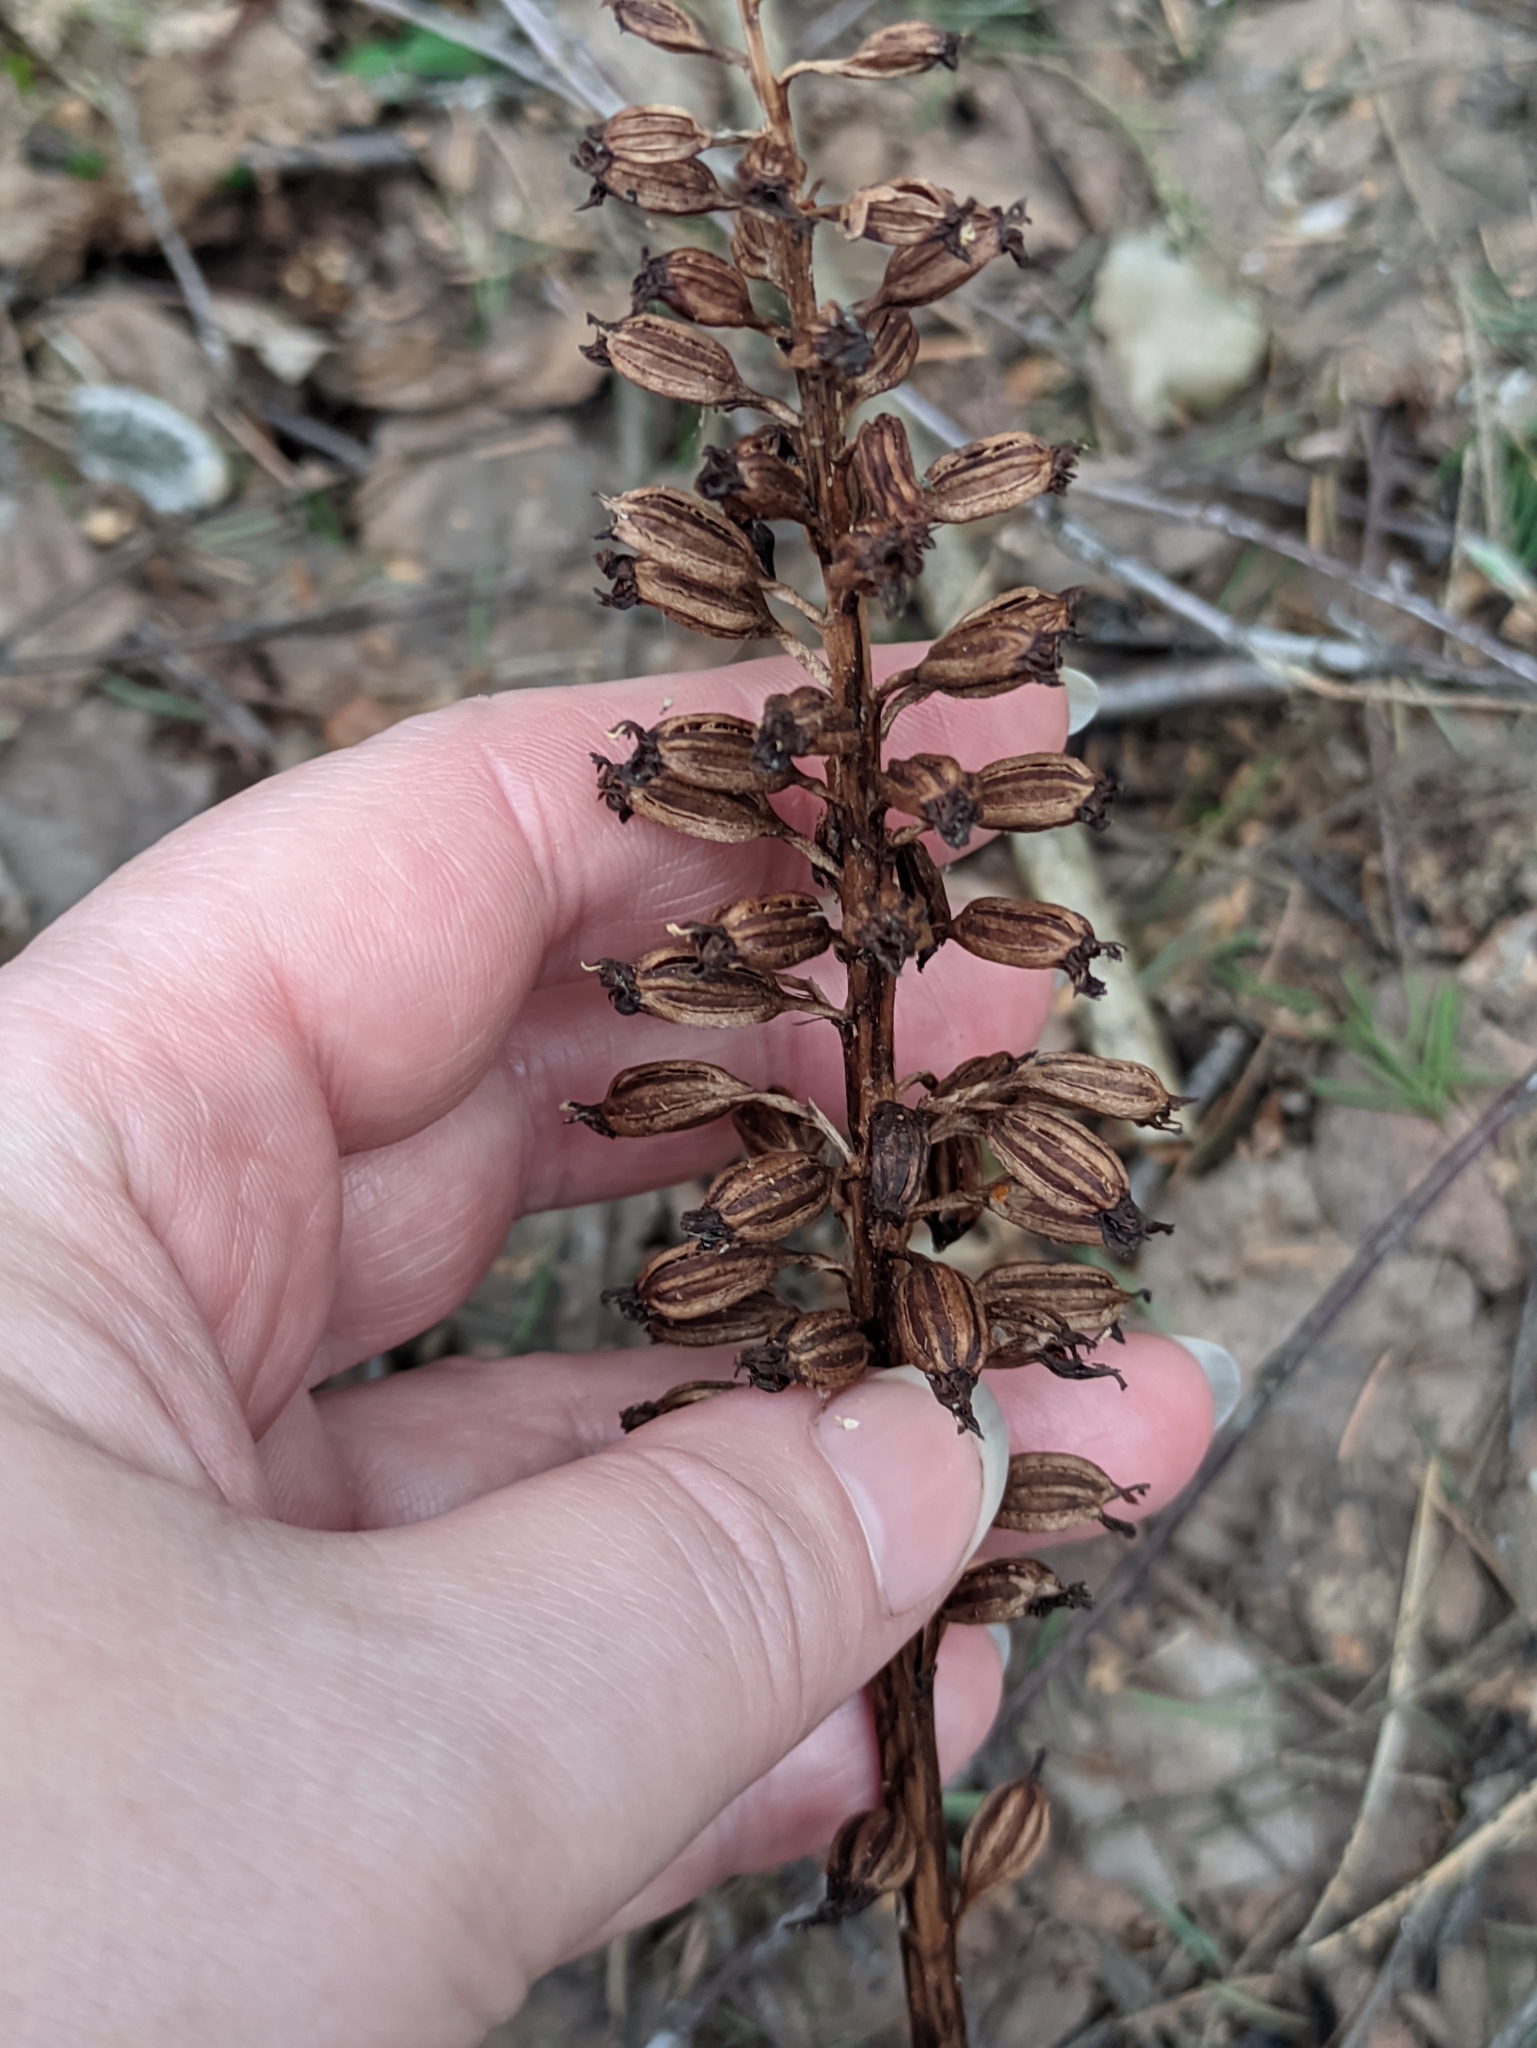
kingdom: Plantae
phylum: Tracheophyta
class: Liliopsida
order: Asparagales
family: Orchidaceae
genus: Neottia
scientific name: Neottia nidus-avis
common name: Bird's-nest orchid
